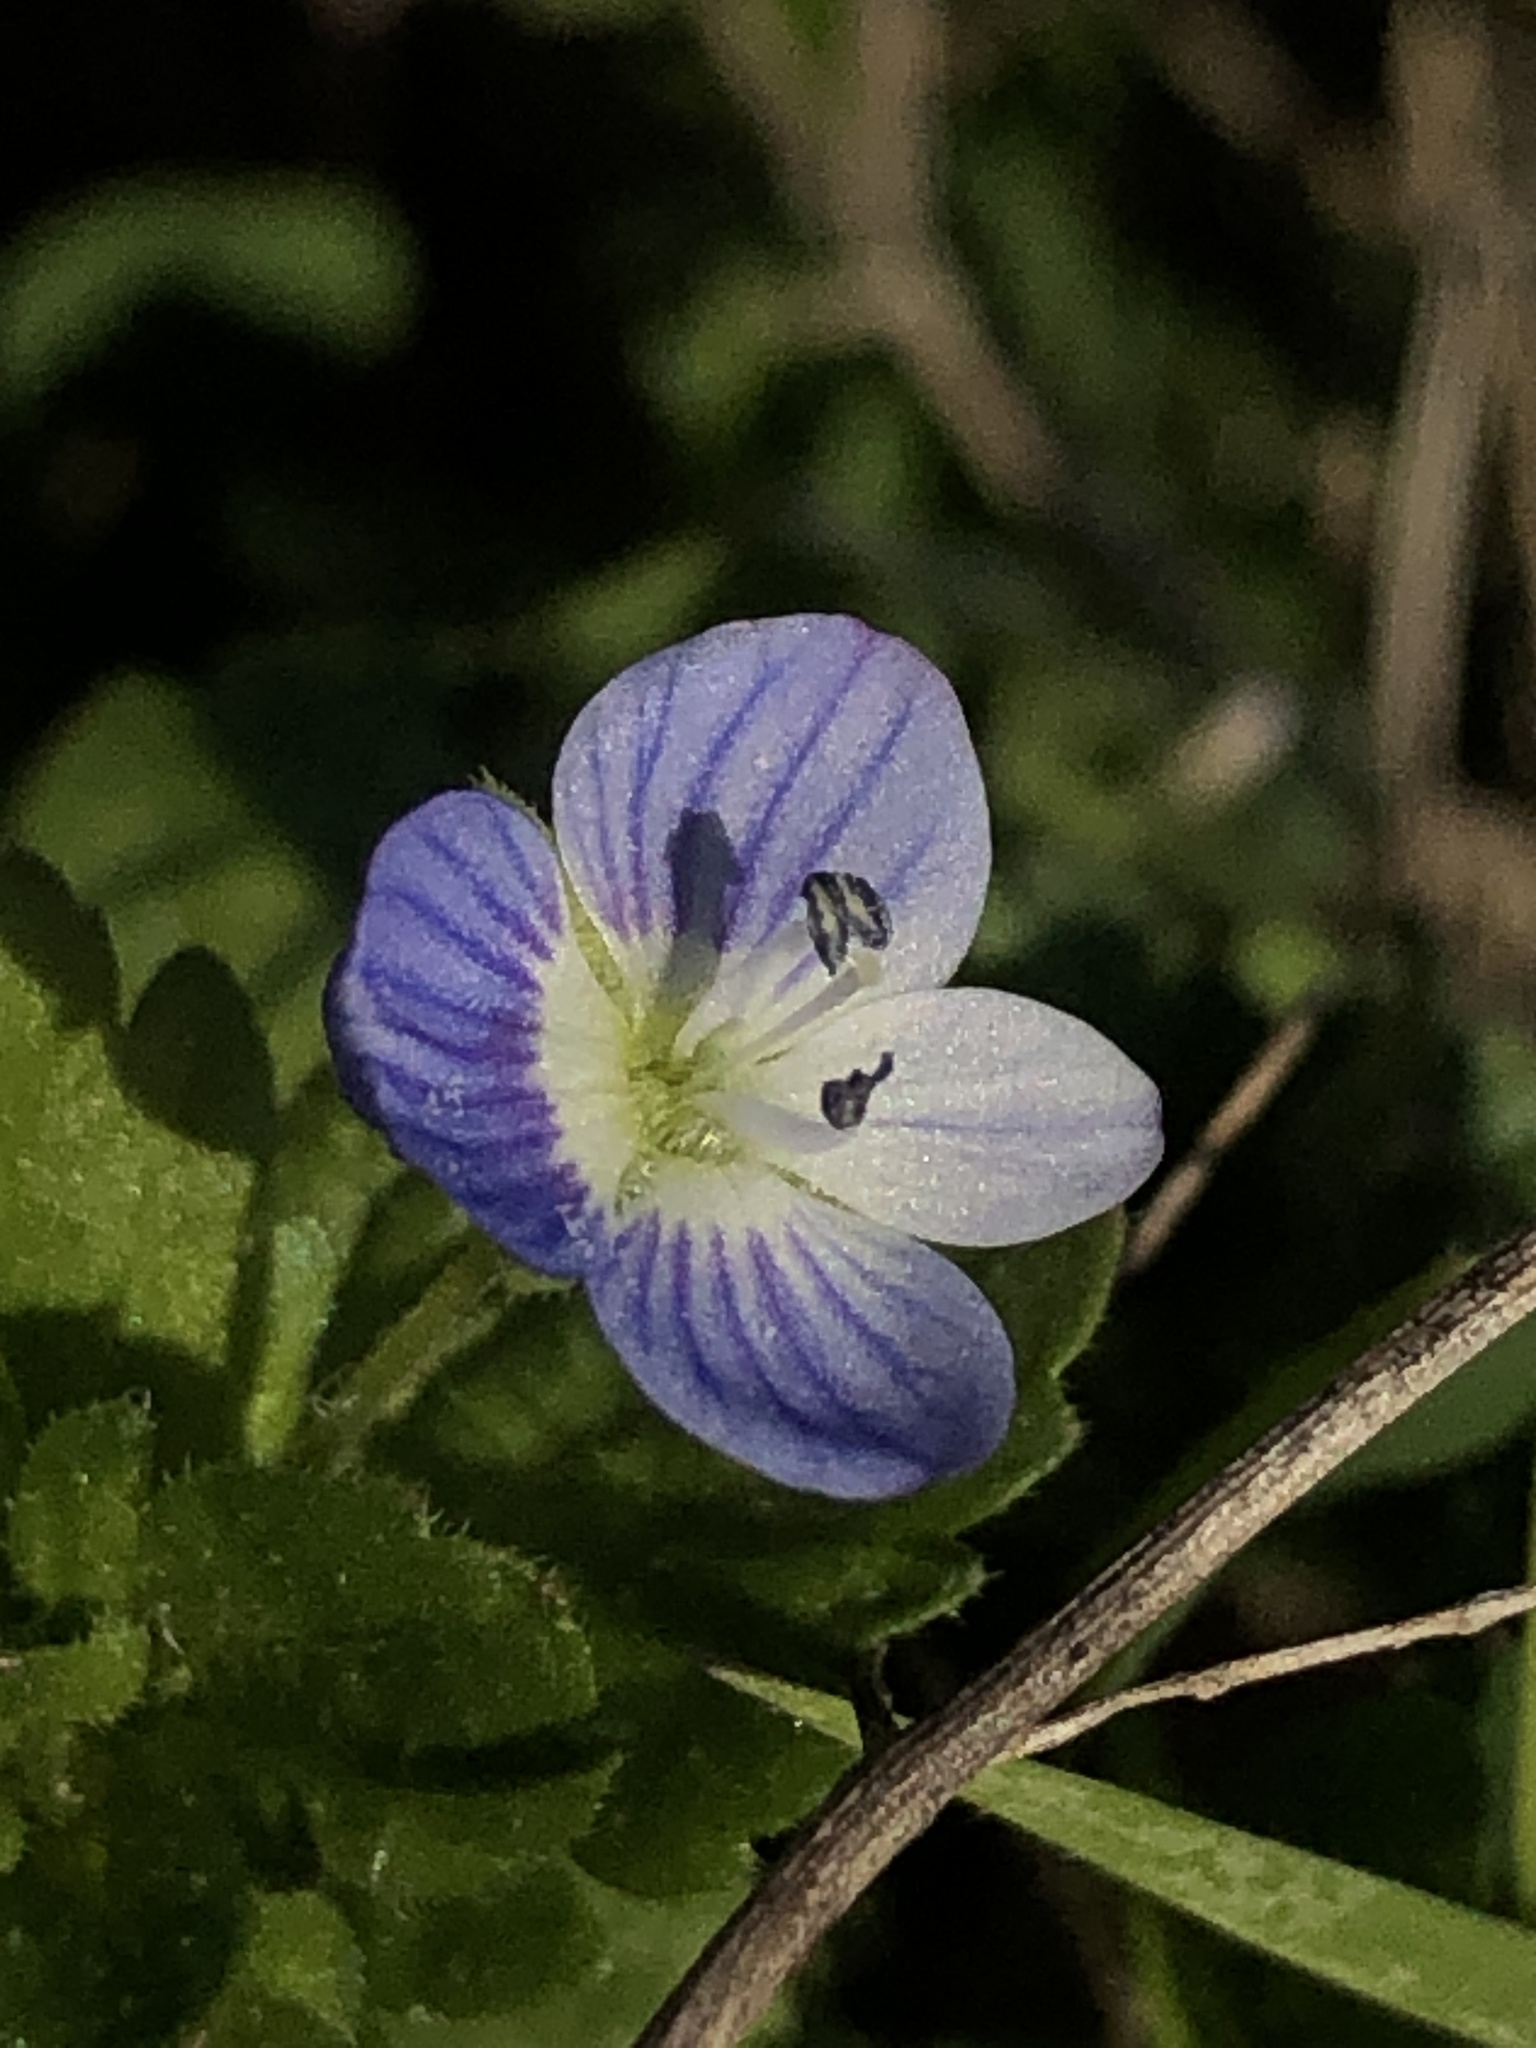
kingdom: Plantae
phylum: Tracheophyta
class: Magnoliopsida
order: Lamiales
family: Plantaginaceae
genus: Veronica
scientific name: Veronica persica
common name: Common field-speedwell
